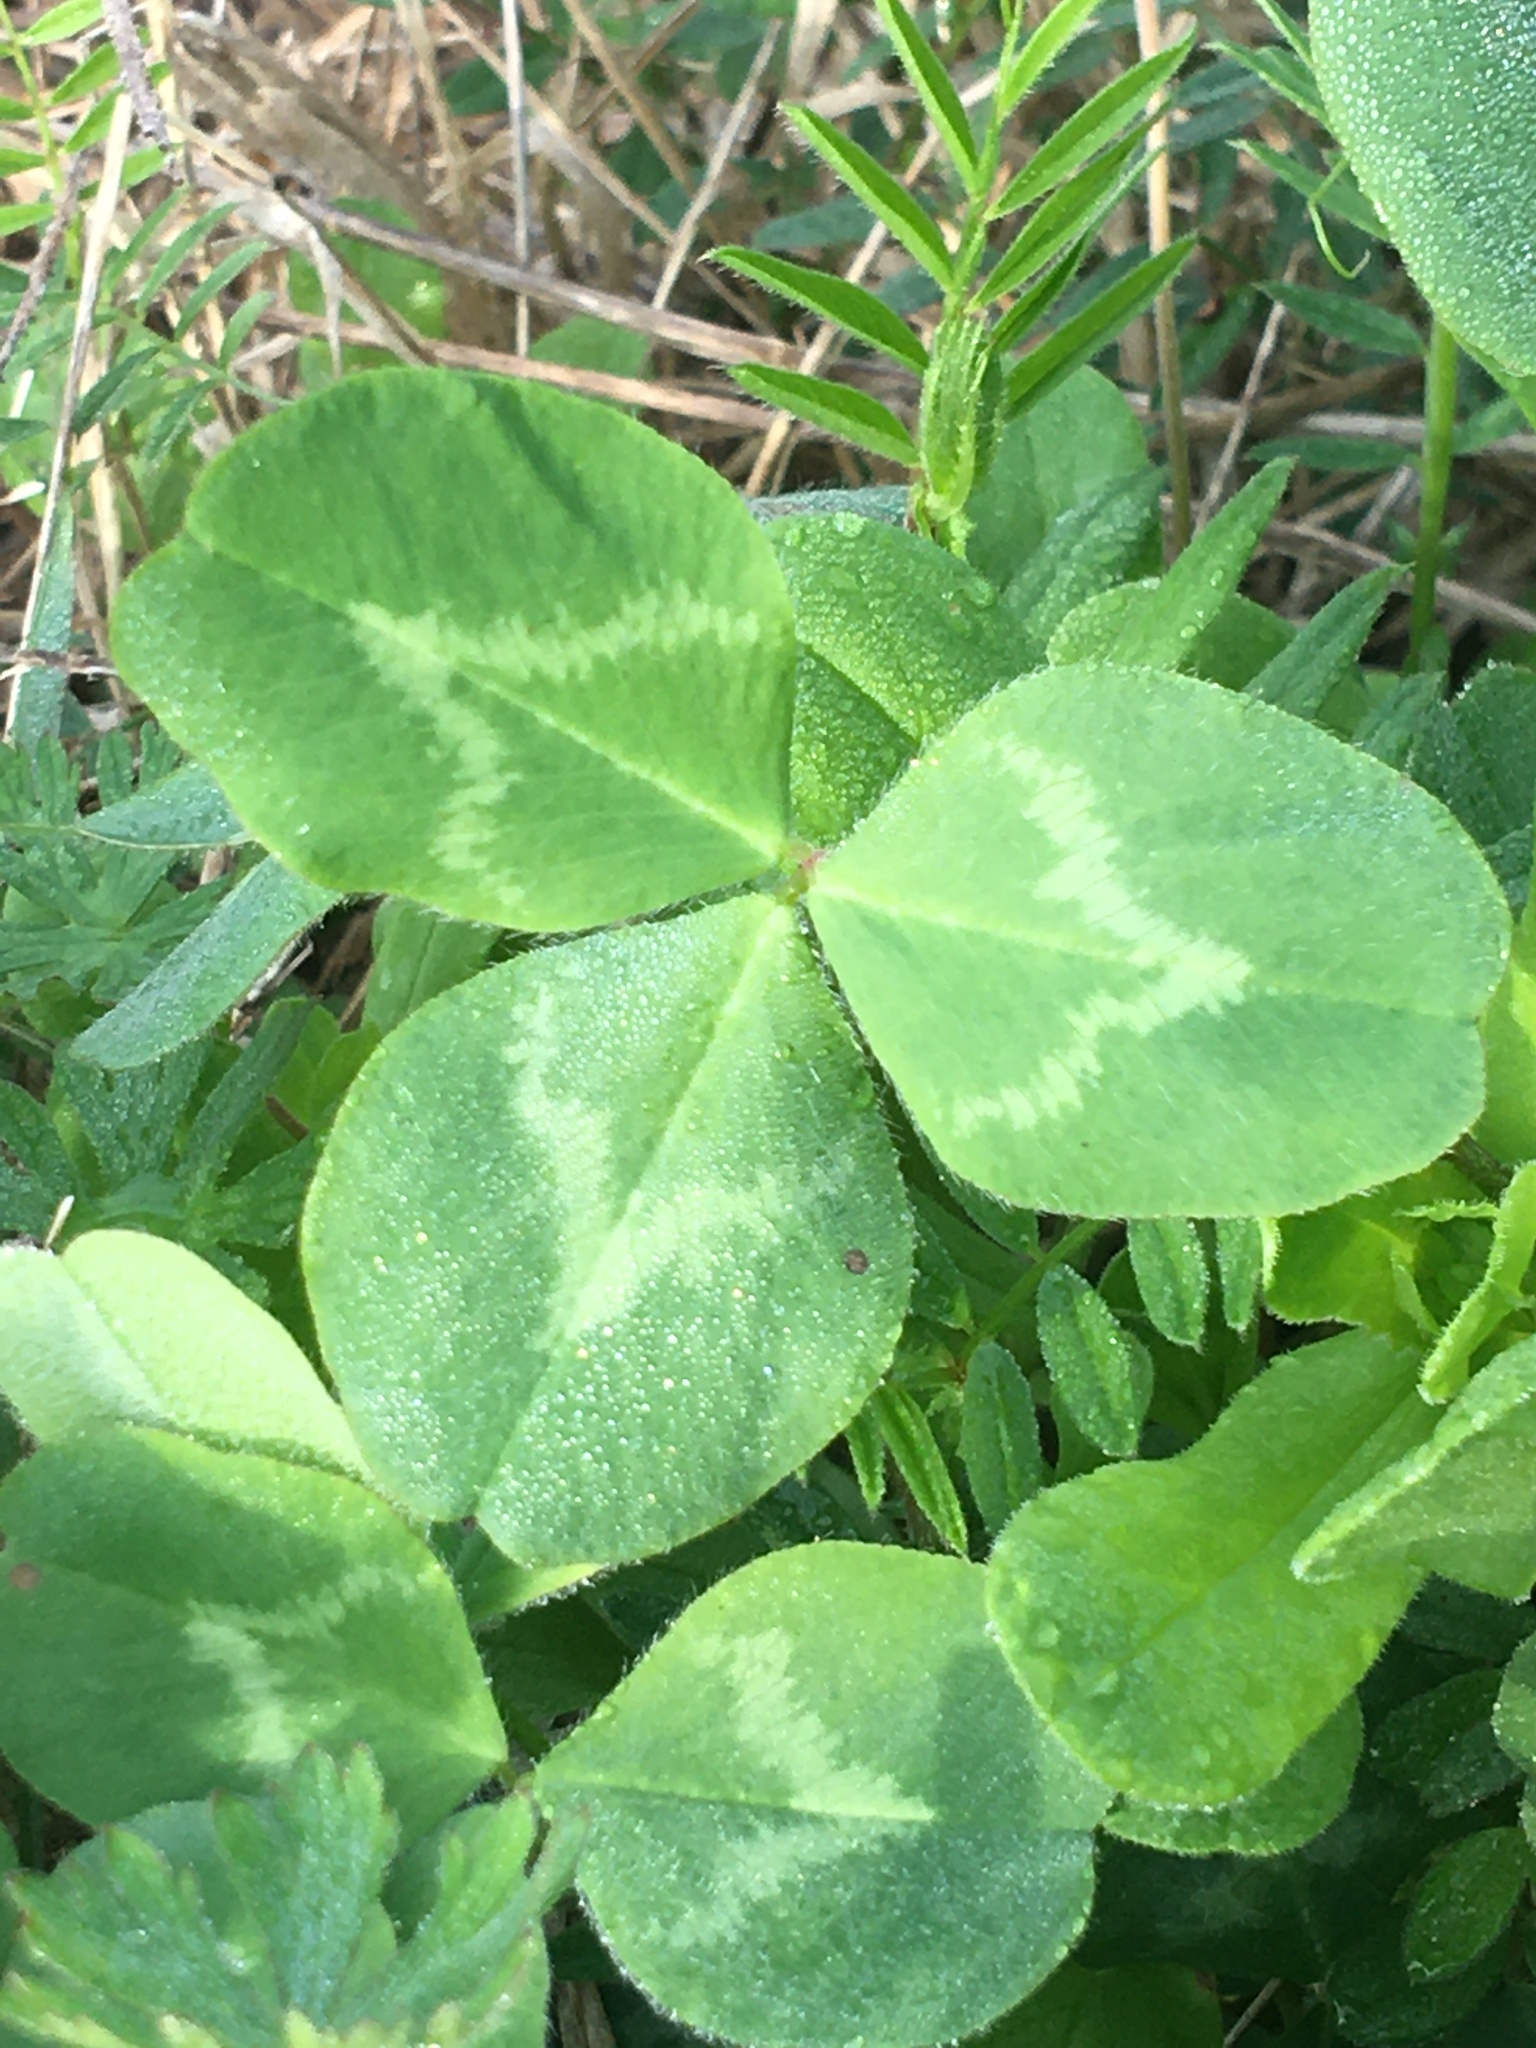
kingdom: Plantae
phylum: Tracheophyta
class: Magnoliopsida
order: Fabales
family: Fabaceae
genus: Trifolium
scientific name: Trifolium pratense
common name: Red clover
